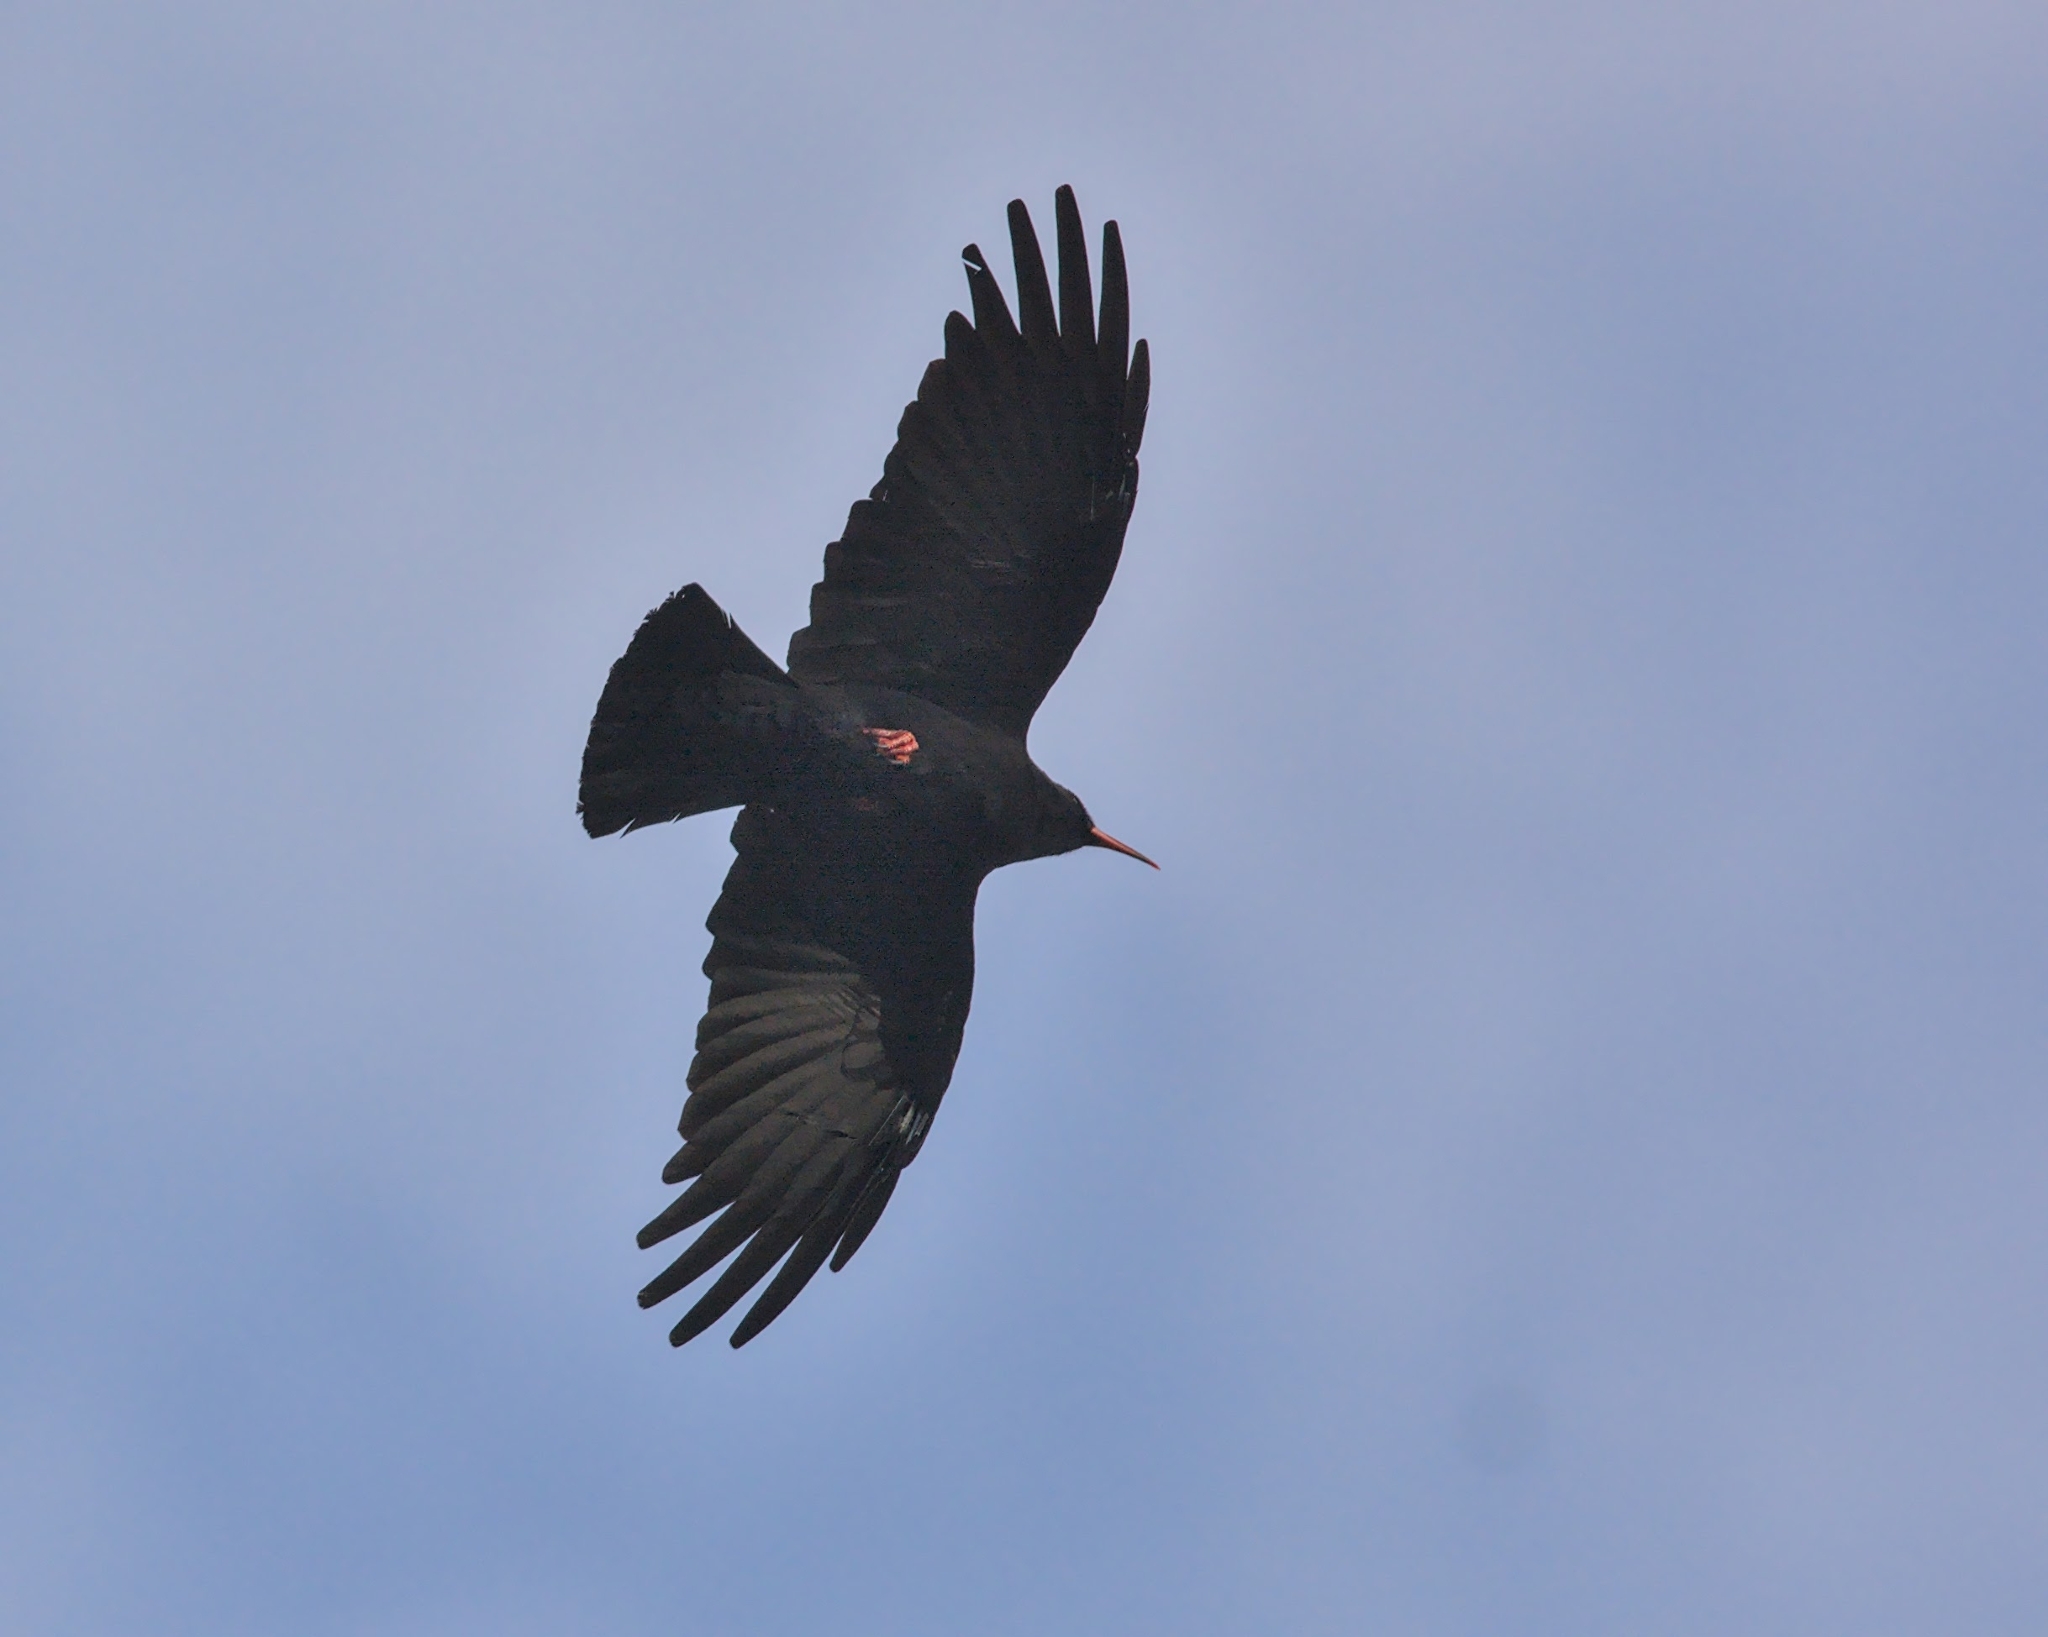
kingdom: Animalia
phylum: Chordata
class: Aves
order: Passeriformes
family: Corvidae
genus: Pyrrhocorax
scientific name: Pyrrhocorax pyrrhocorax
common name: Red-billed chough
